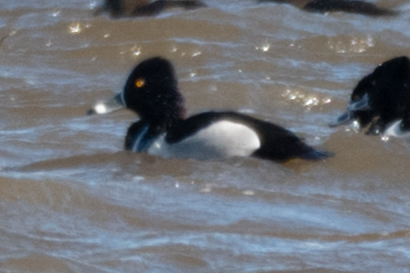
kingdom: Animalia
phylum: Chordata
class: Aves
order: Anseriformes
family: Anatidae
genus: Aythya
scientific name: Aythya collaris
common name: Ring-necked duck
